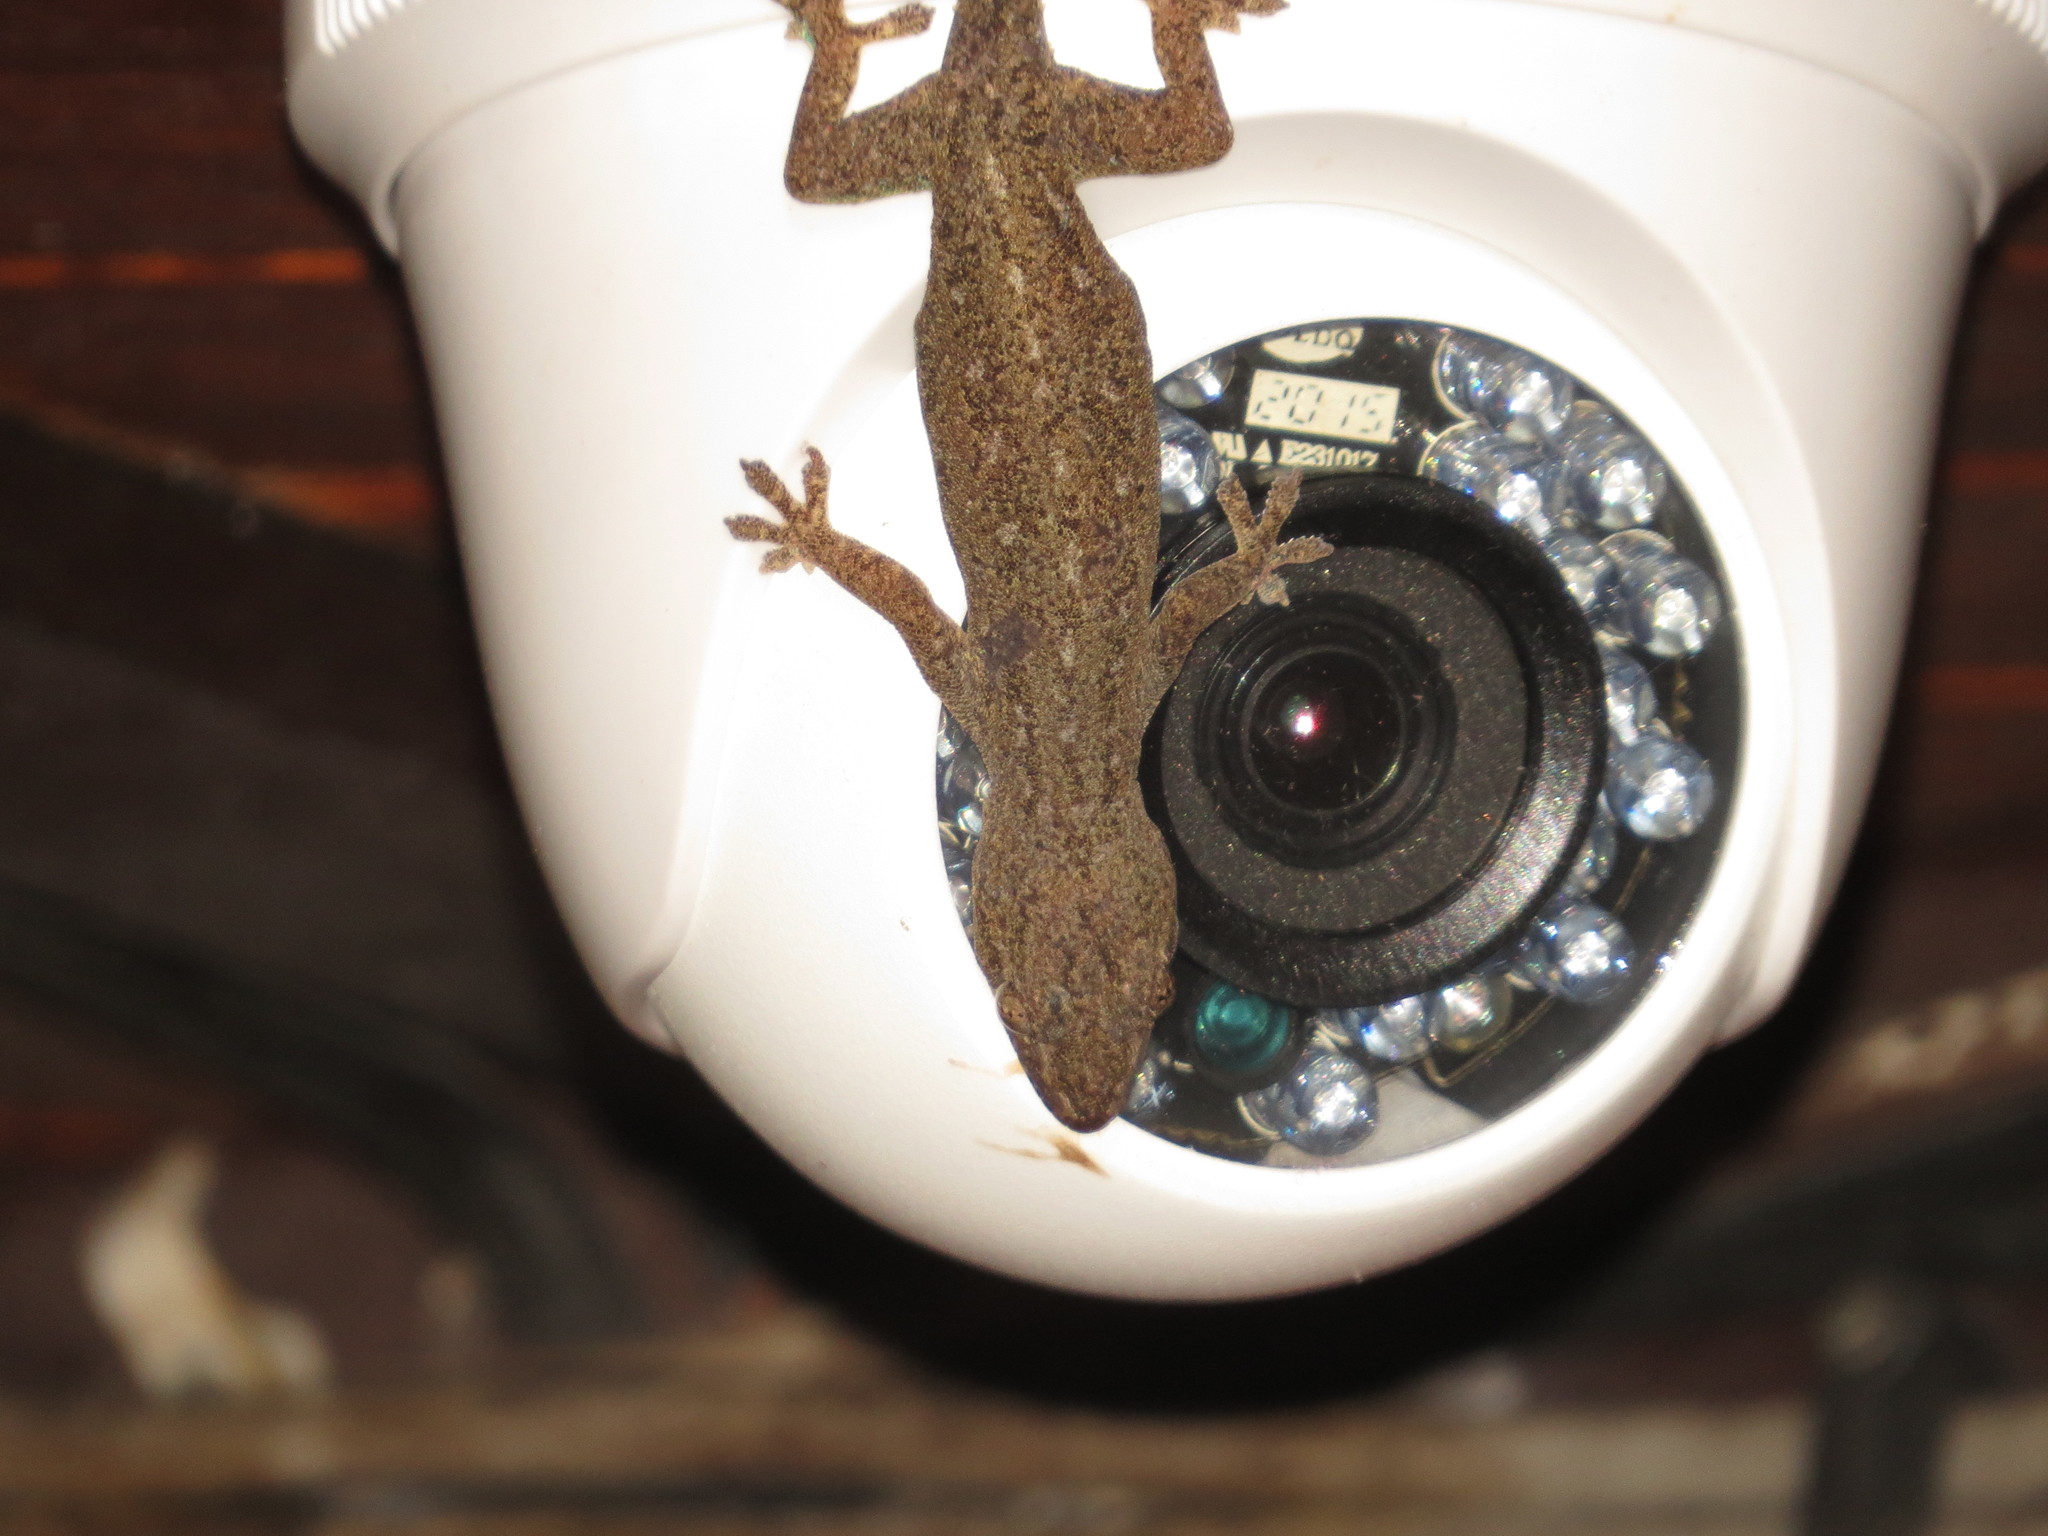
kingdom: Animalia
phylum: Chordata
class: Squamata
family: Gekkonidae
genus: Hemidactylus
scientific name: Hemidactylus frenatus
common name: Common house gecko
